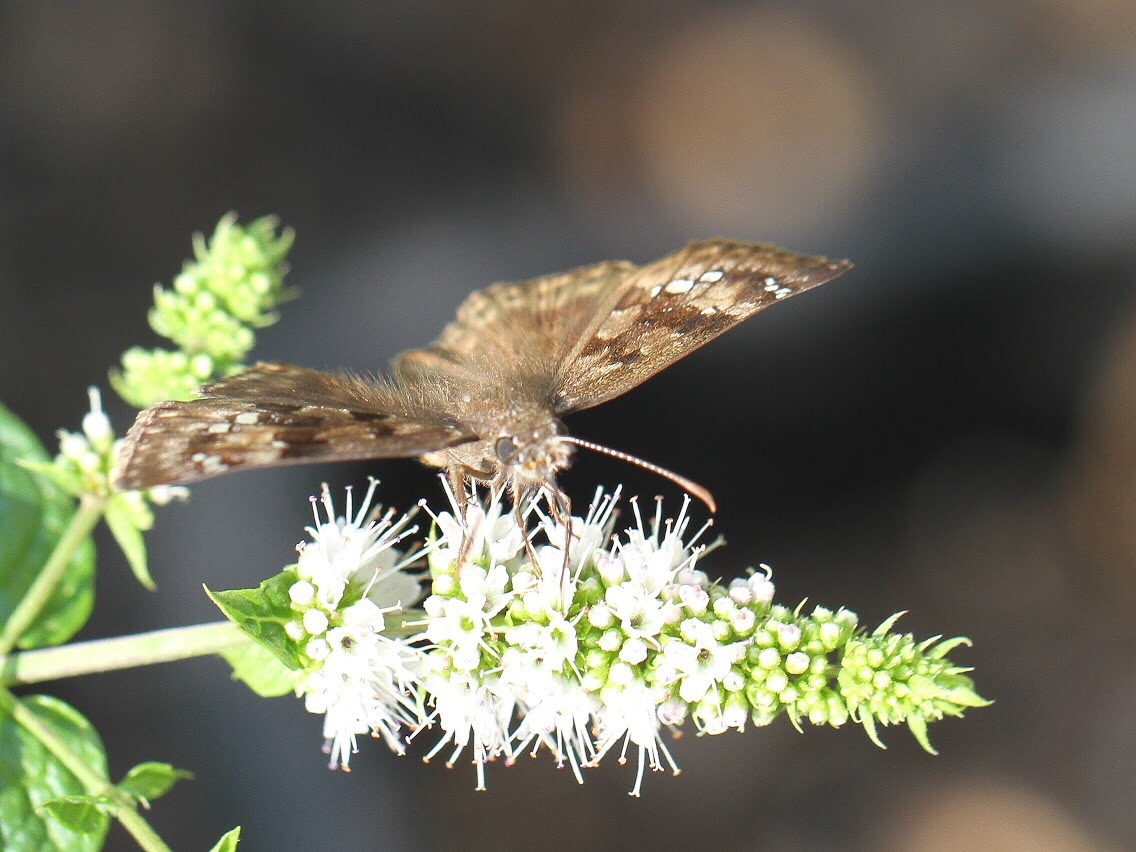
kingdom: Animalia
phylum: Arthropoda
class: Insecta
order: Lepidoptera
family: Hesperiidae
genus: Erynnis
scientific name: Erynnis horatius
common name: Horace's duskywing
